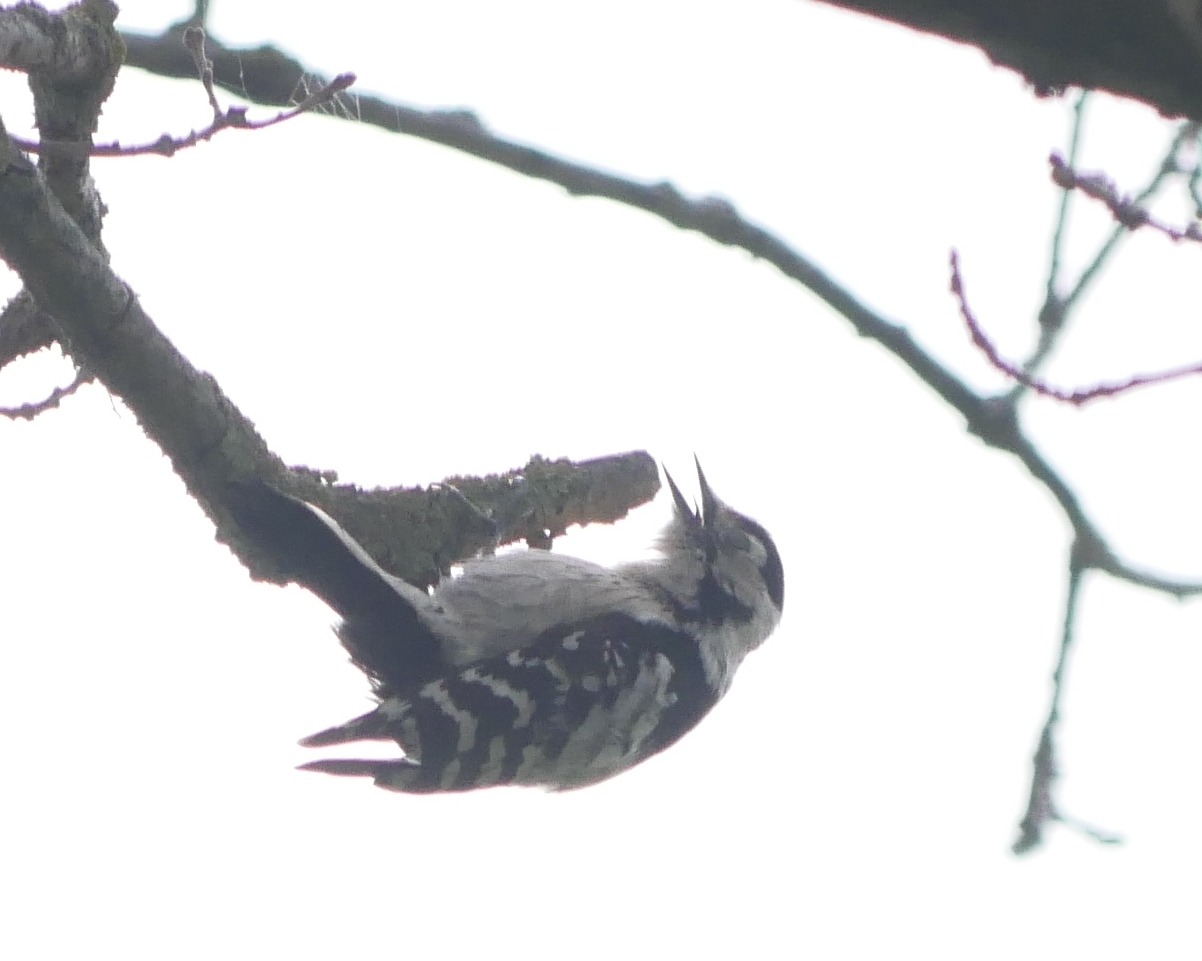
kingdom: Animalia
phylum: Chordata
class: Aves
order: Piciformes
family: Picidae
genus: Dryobates
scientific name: Dryobates minor
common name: Lesser spotted woodpecker
